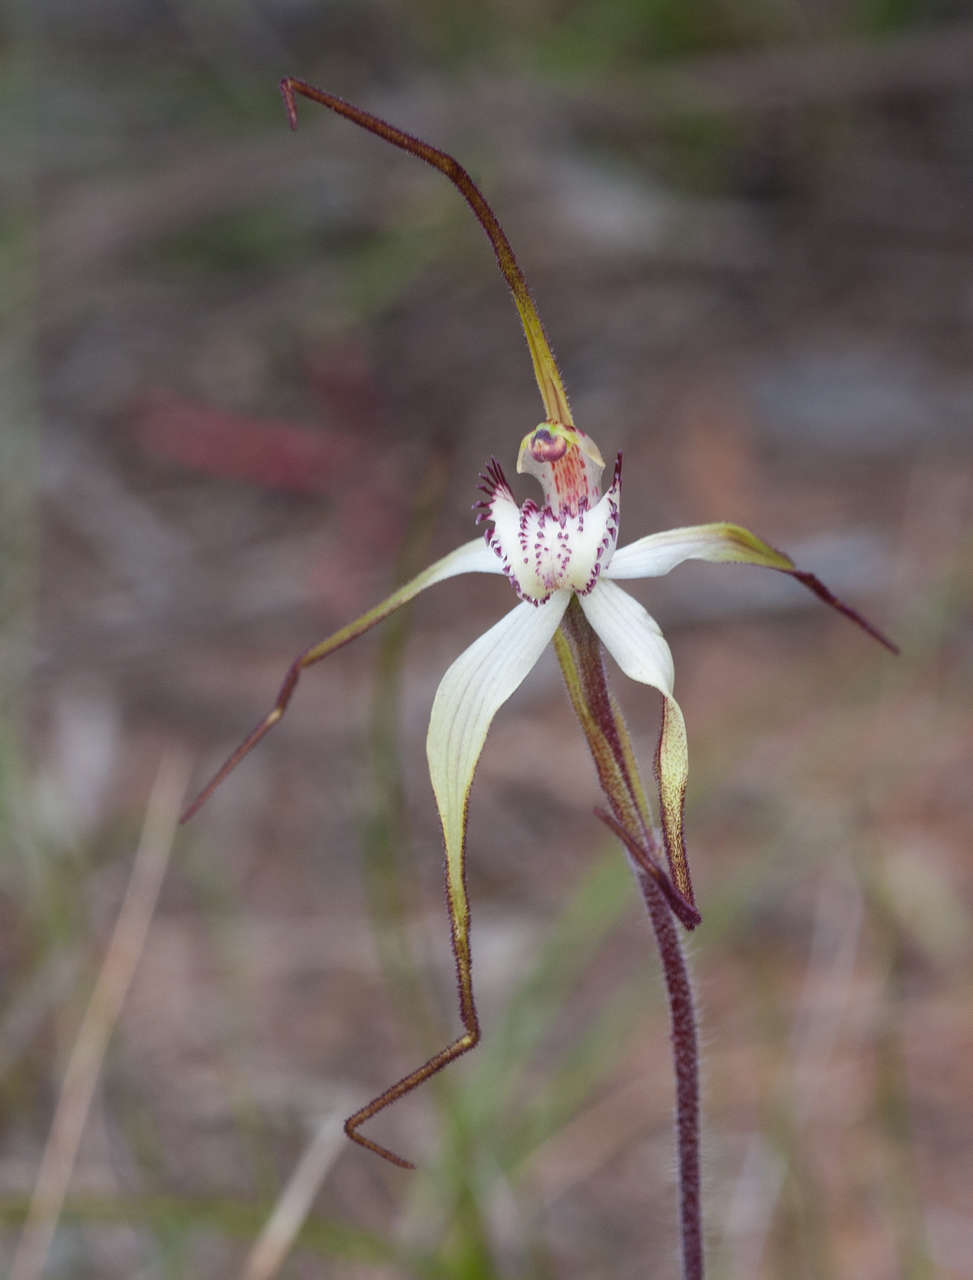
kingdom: Plantae
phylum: Tracheophyta
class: Liliopsida
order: Asparagales
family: Orchidaceae
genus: Caladenia
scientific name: Caladenia venusta
